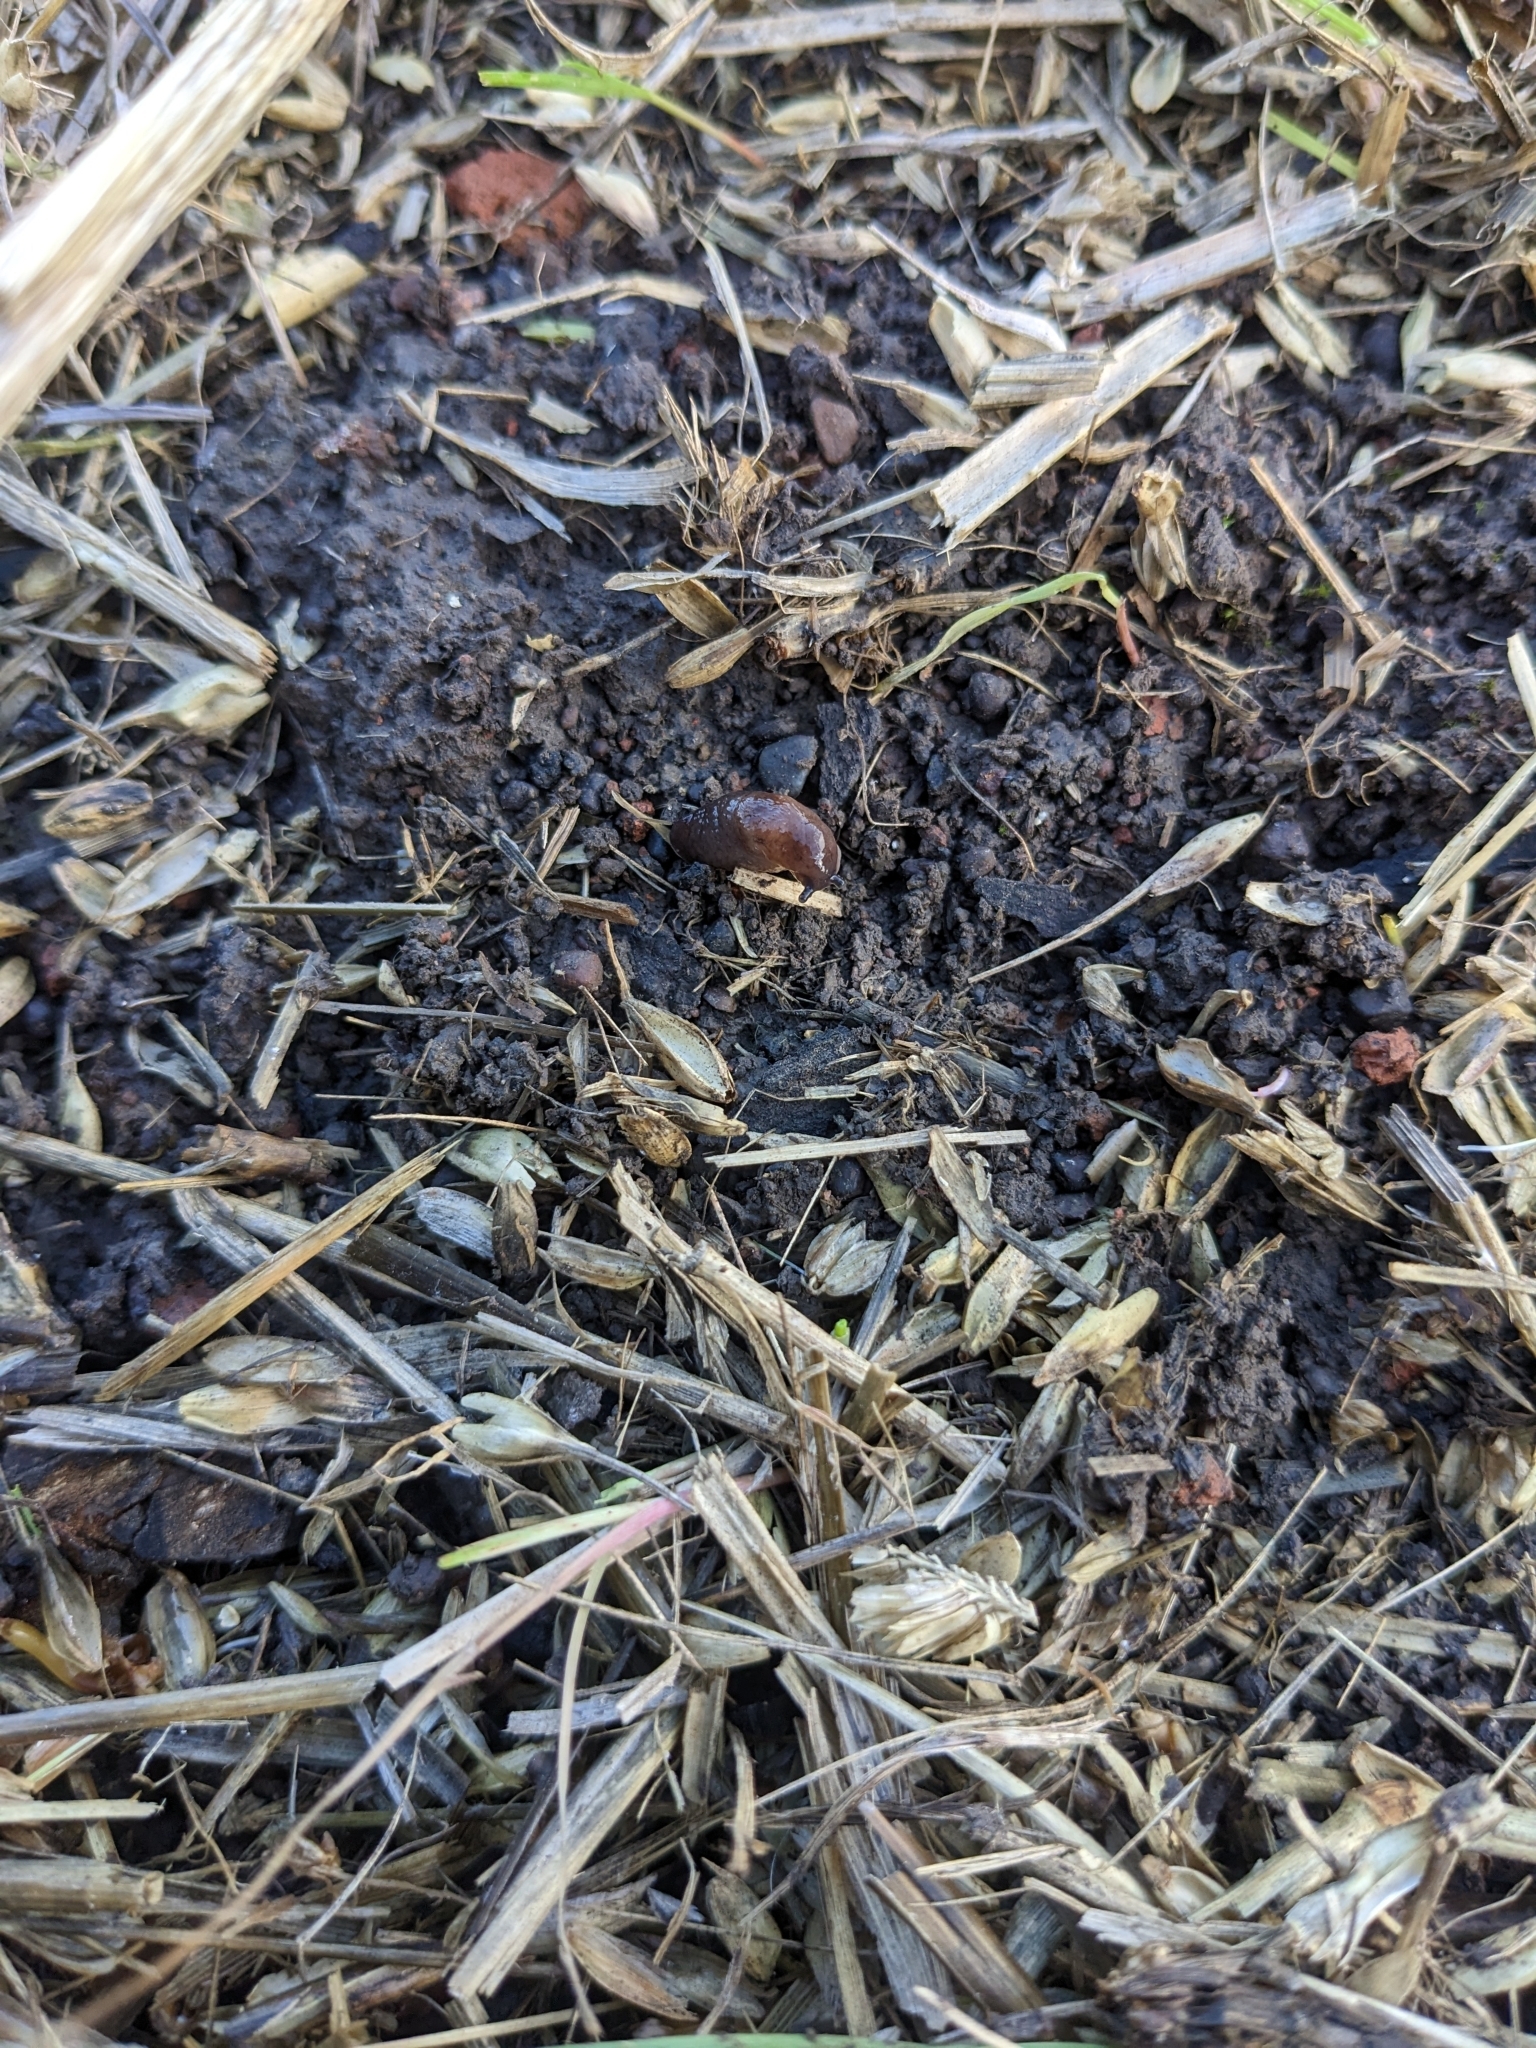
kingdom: Animalia
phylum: Mollusca
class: Gastropoda
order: Stylommatophora
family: Agriolimacidae
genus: Deroceras
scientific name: Deroceras invadens
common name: Caruana's slug
